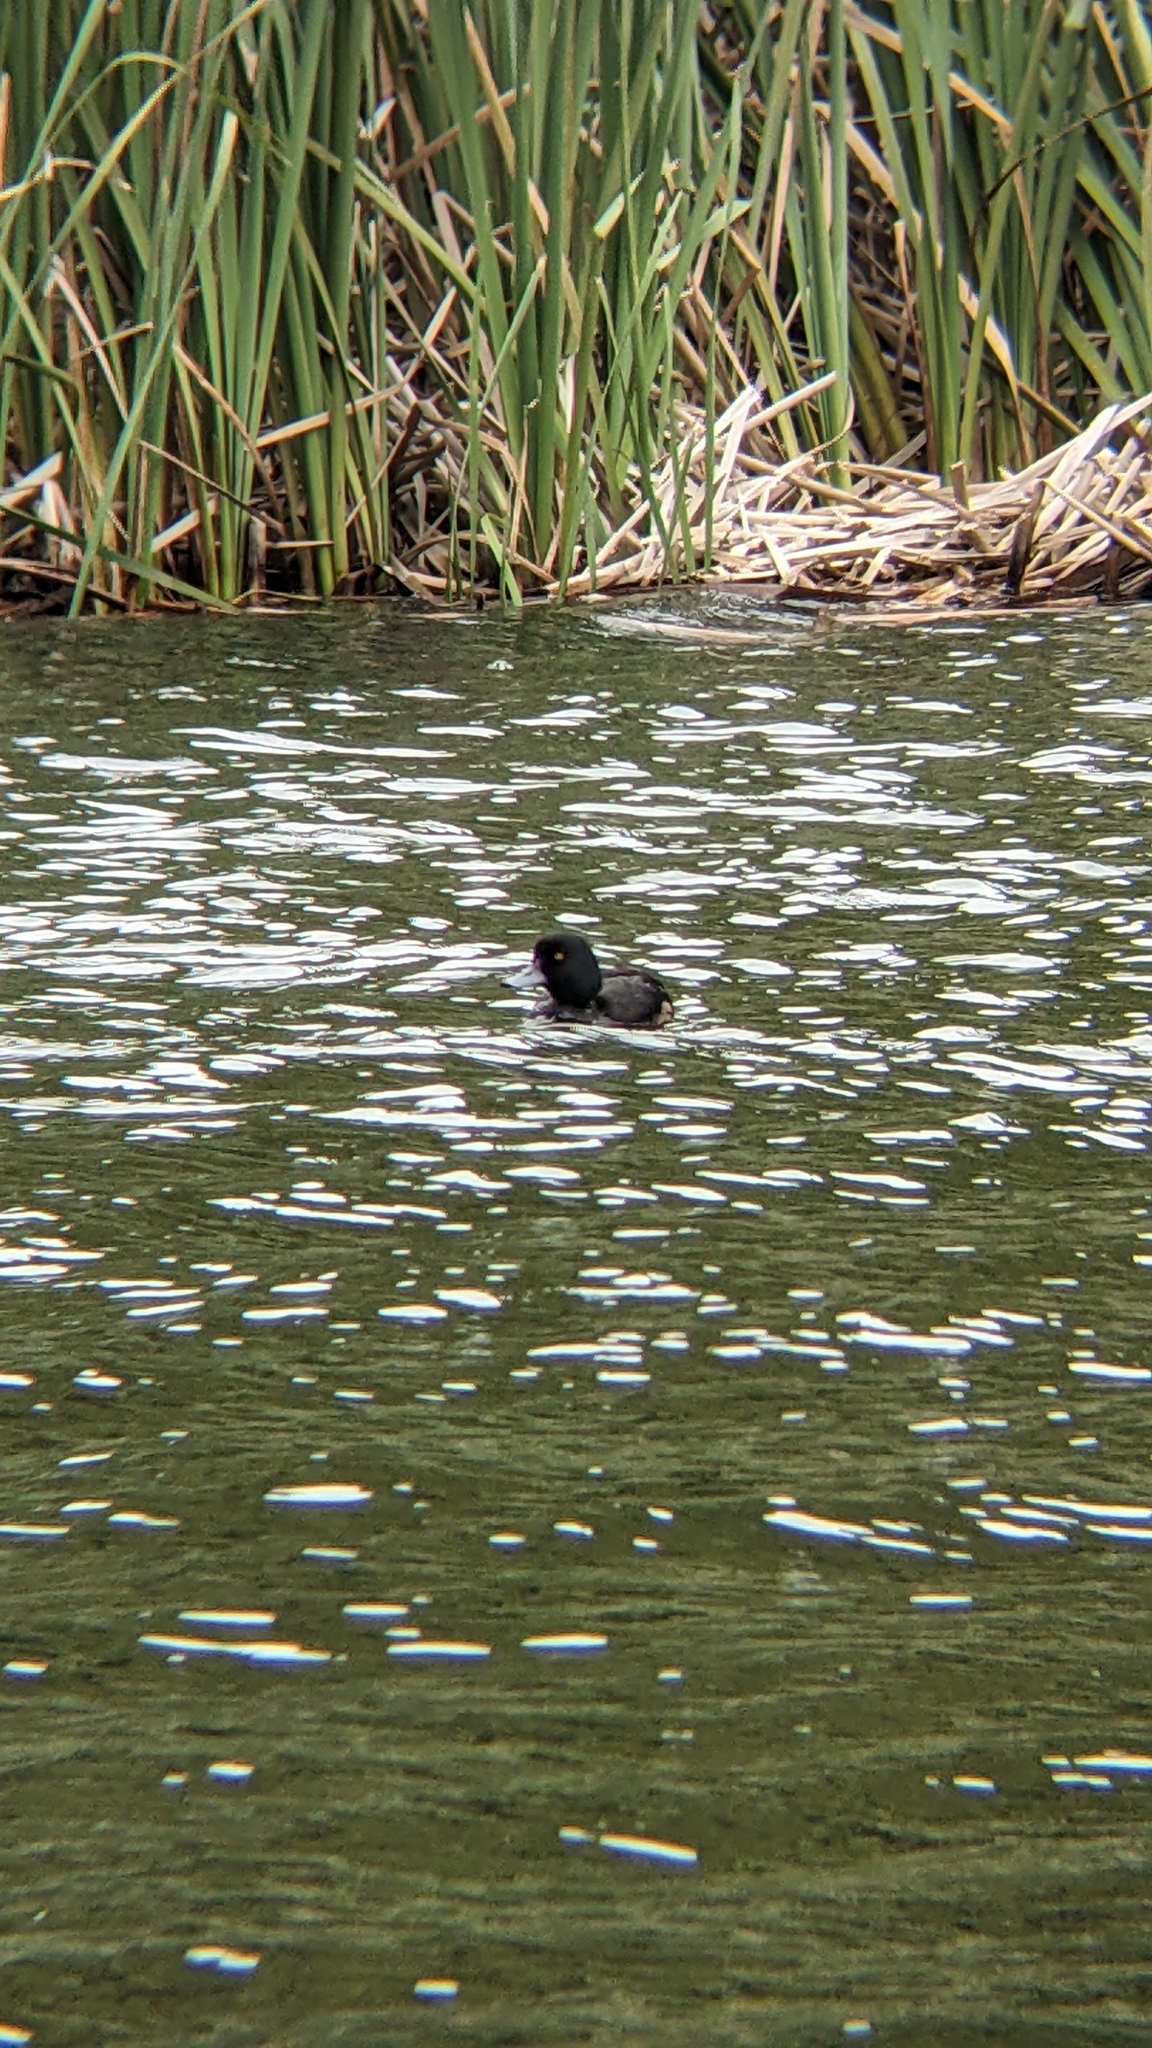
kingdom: Animalia
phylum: Chordata
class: Aves
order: Anseriformes
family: Anatidae
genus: Aythya
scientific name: Aythya novaeseelandiae
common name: New zealand scaup
